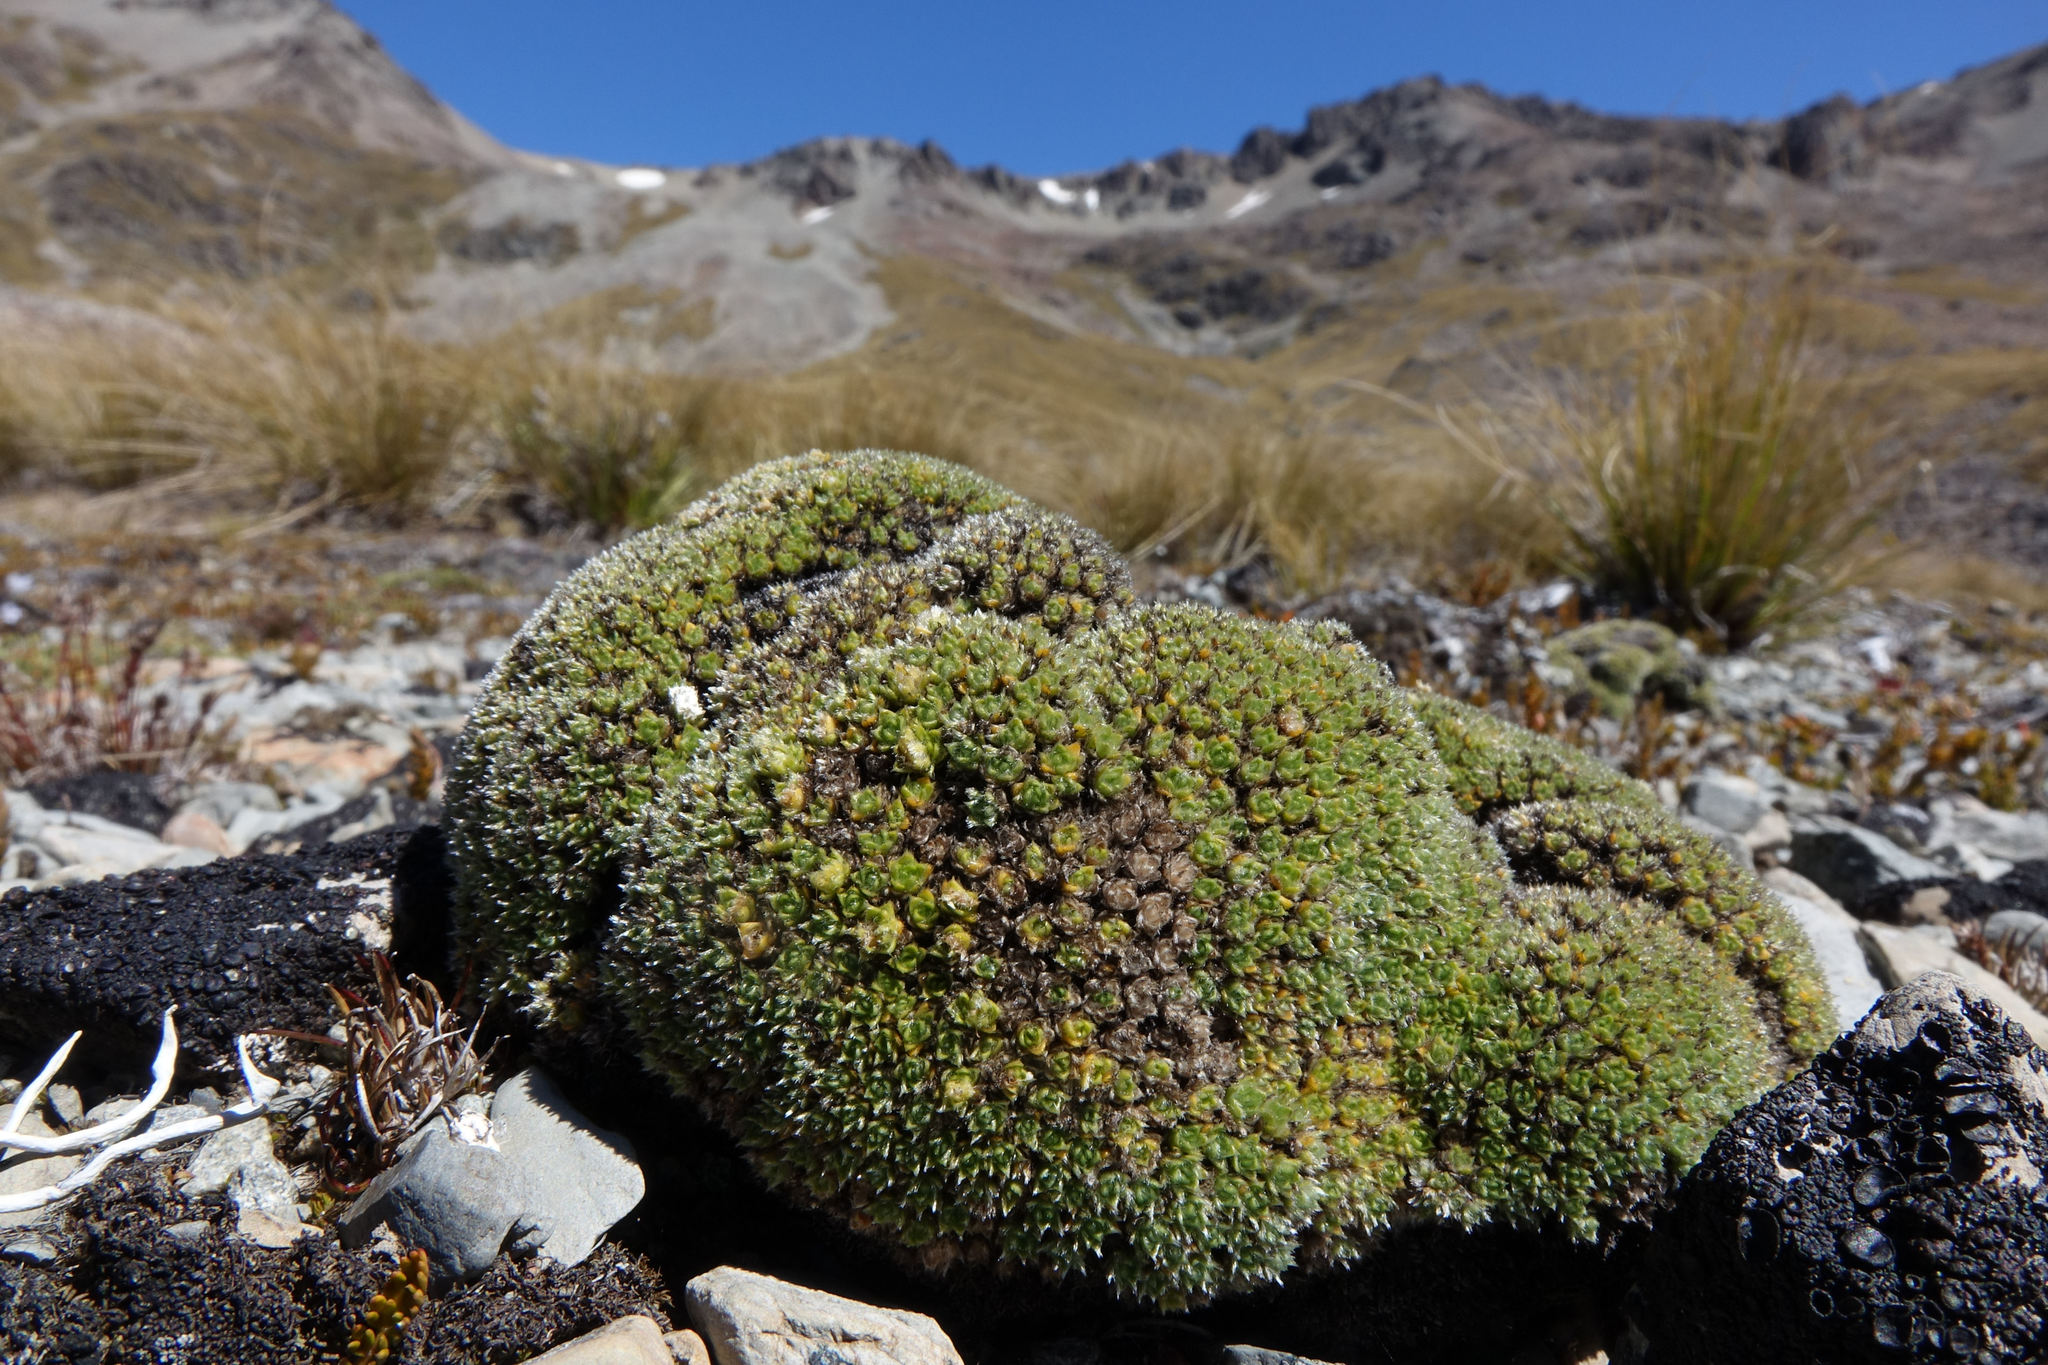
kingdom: Plantae
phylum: Tracheophyta
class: Magnoliopsida
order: Lamiales
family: Plantaginaceae
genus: Veronica
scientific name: Veronica thomsonii
